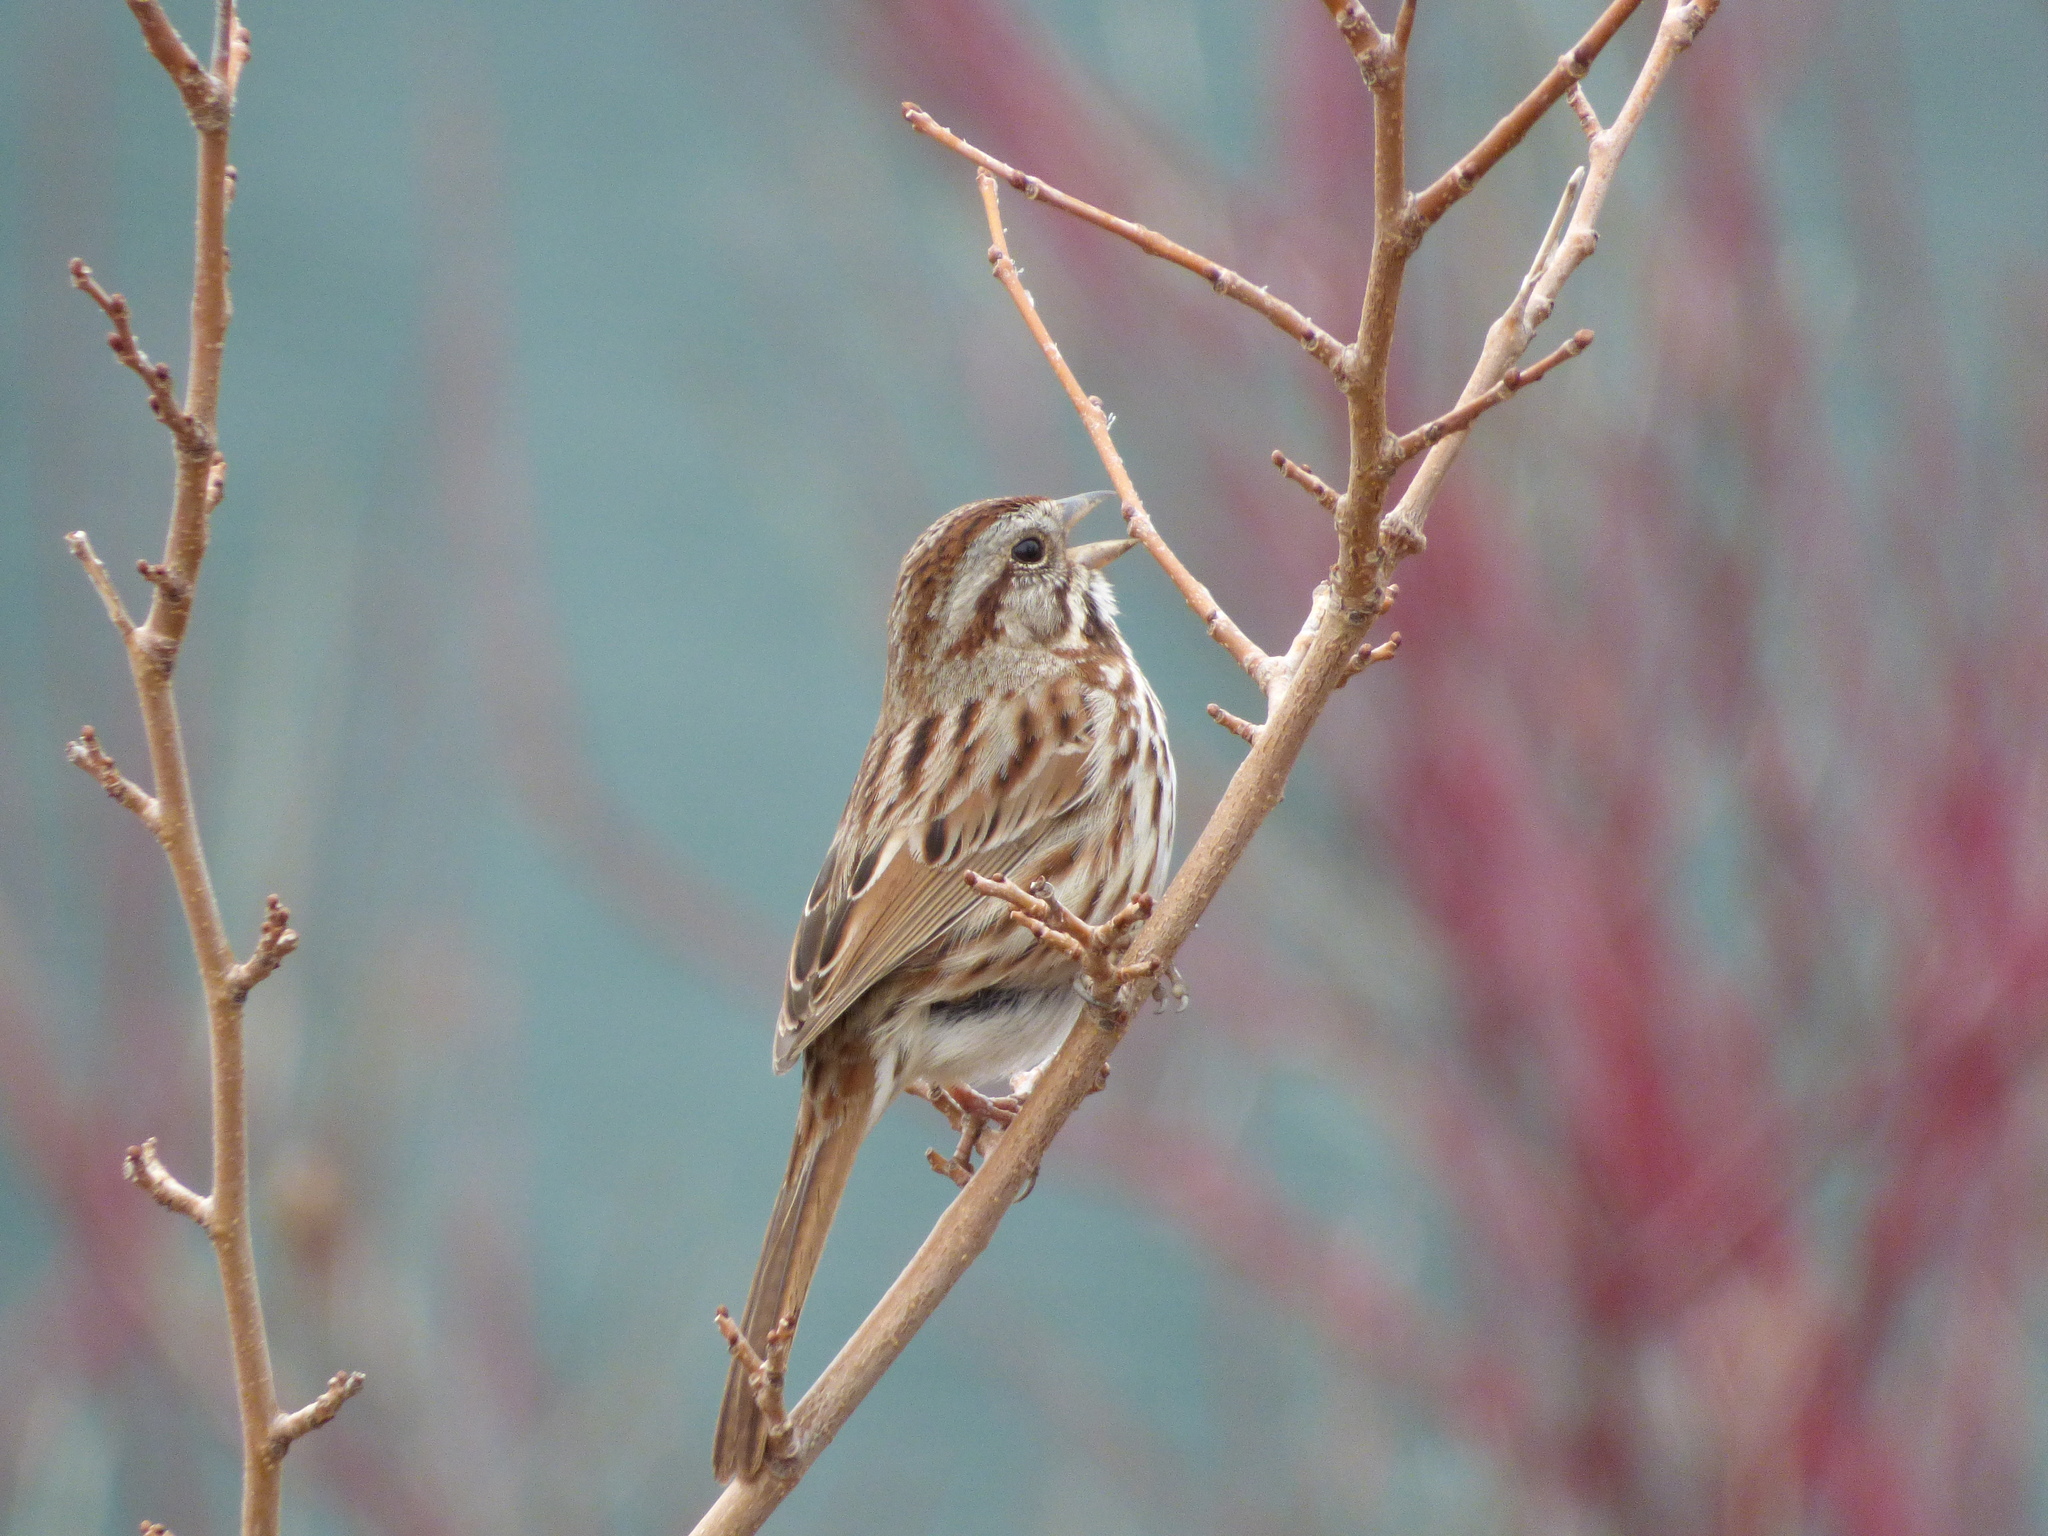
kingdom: Animalia
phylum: Chordata
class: Aves
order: Passeriformes
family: Passerellidae
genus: Melospiza
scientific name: Melospiza melodia
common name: Song sparrow
